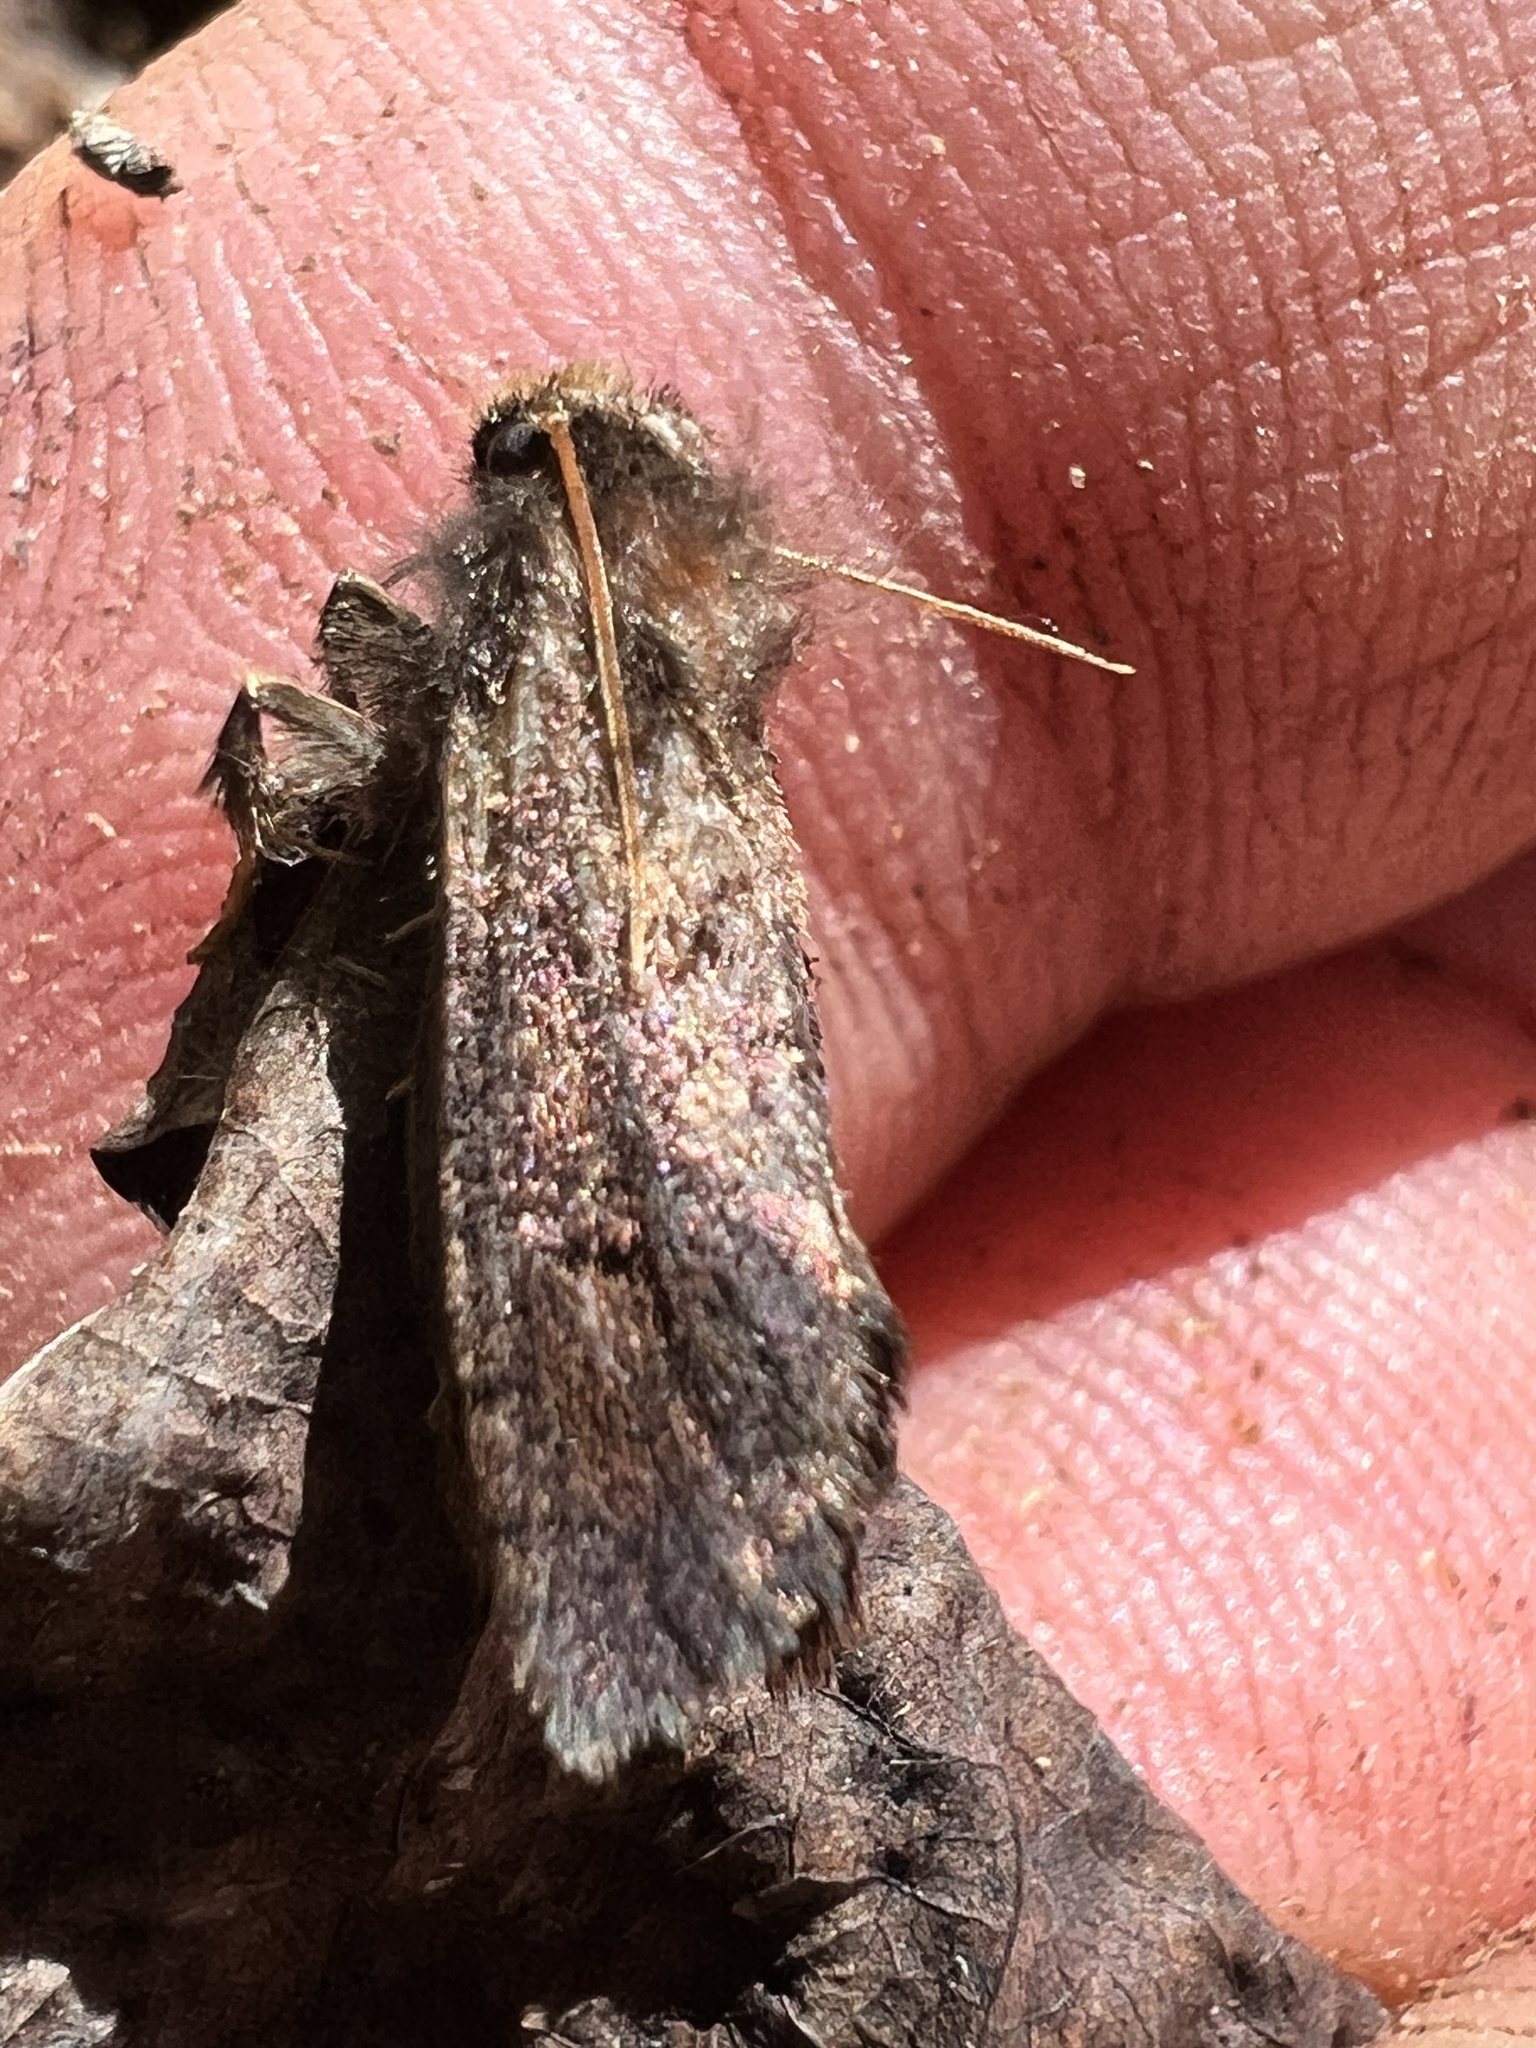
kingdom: Animalia
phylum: Arthropoda
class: Insecta
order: Lepidoptera
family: Tineidae
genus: Acrolophus
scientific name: Acrolophus mora
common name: Dark acrolophus
